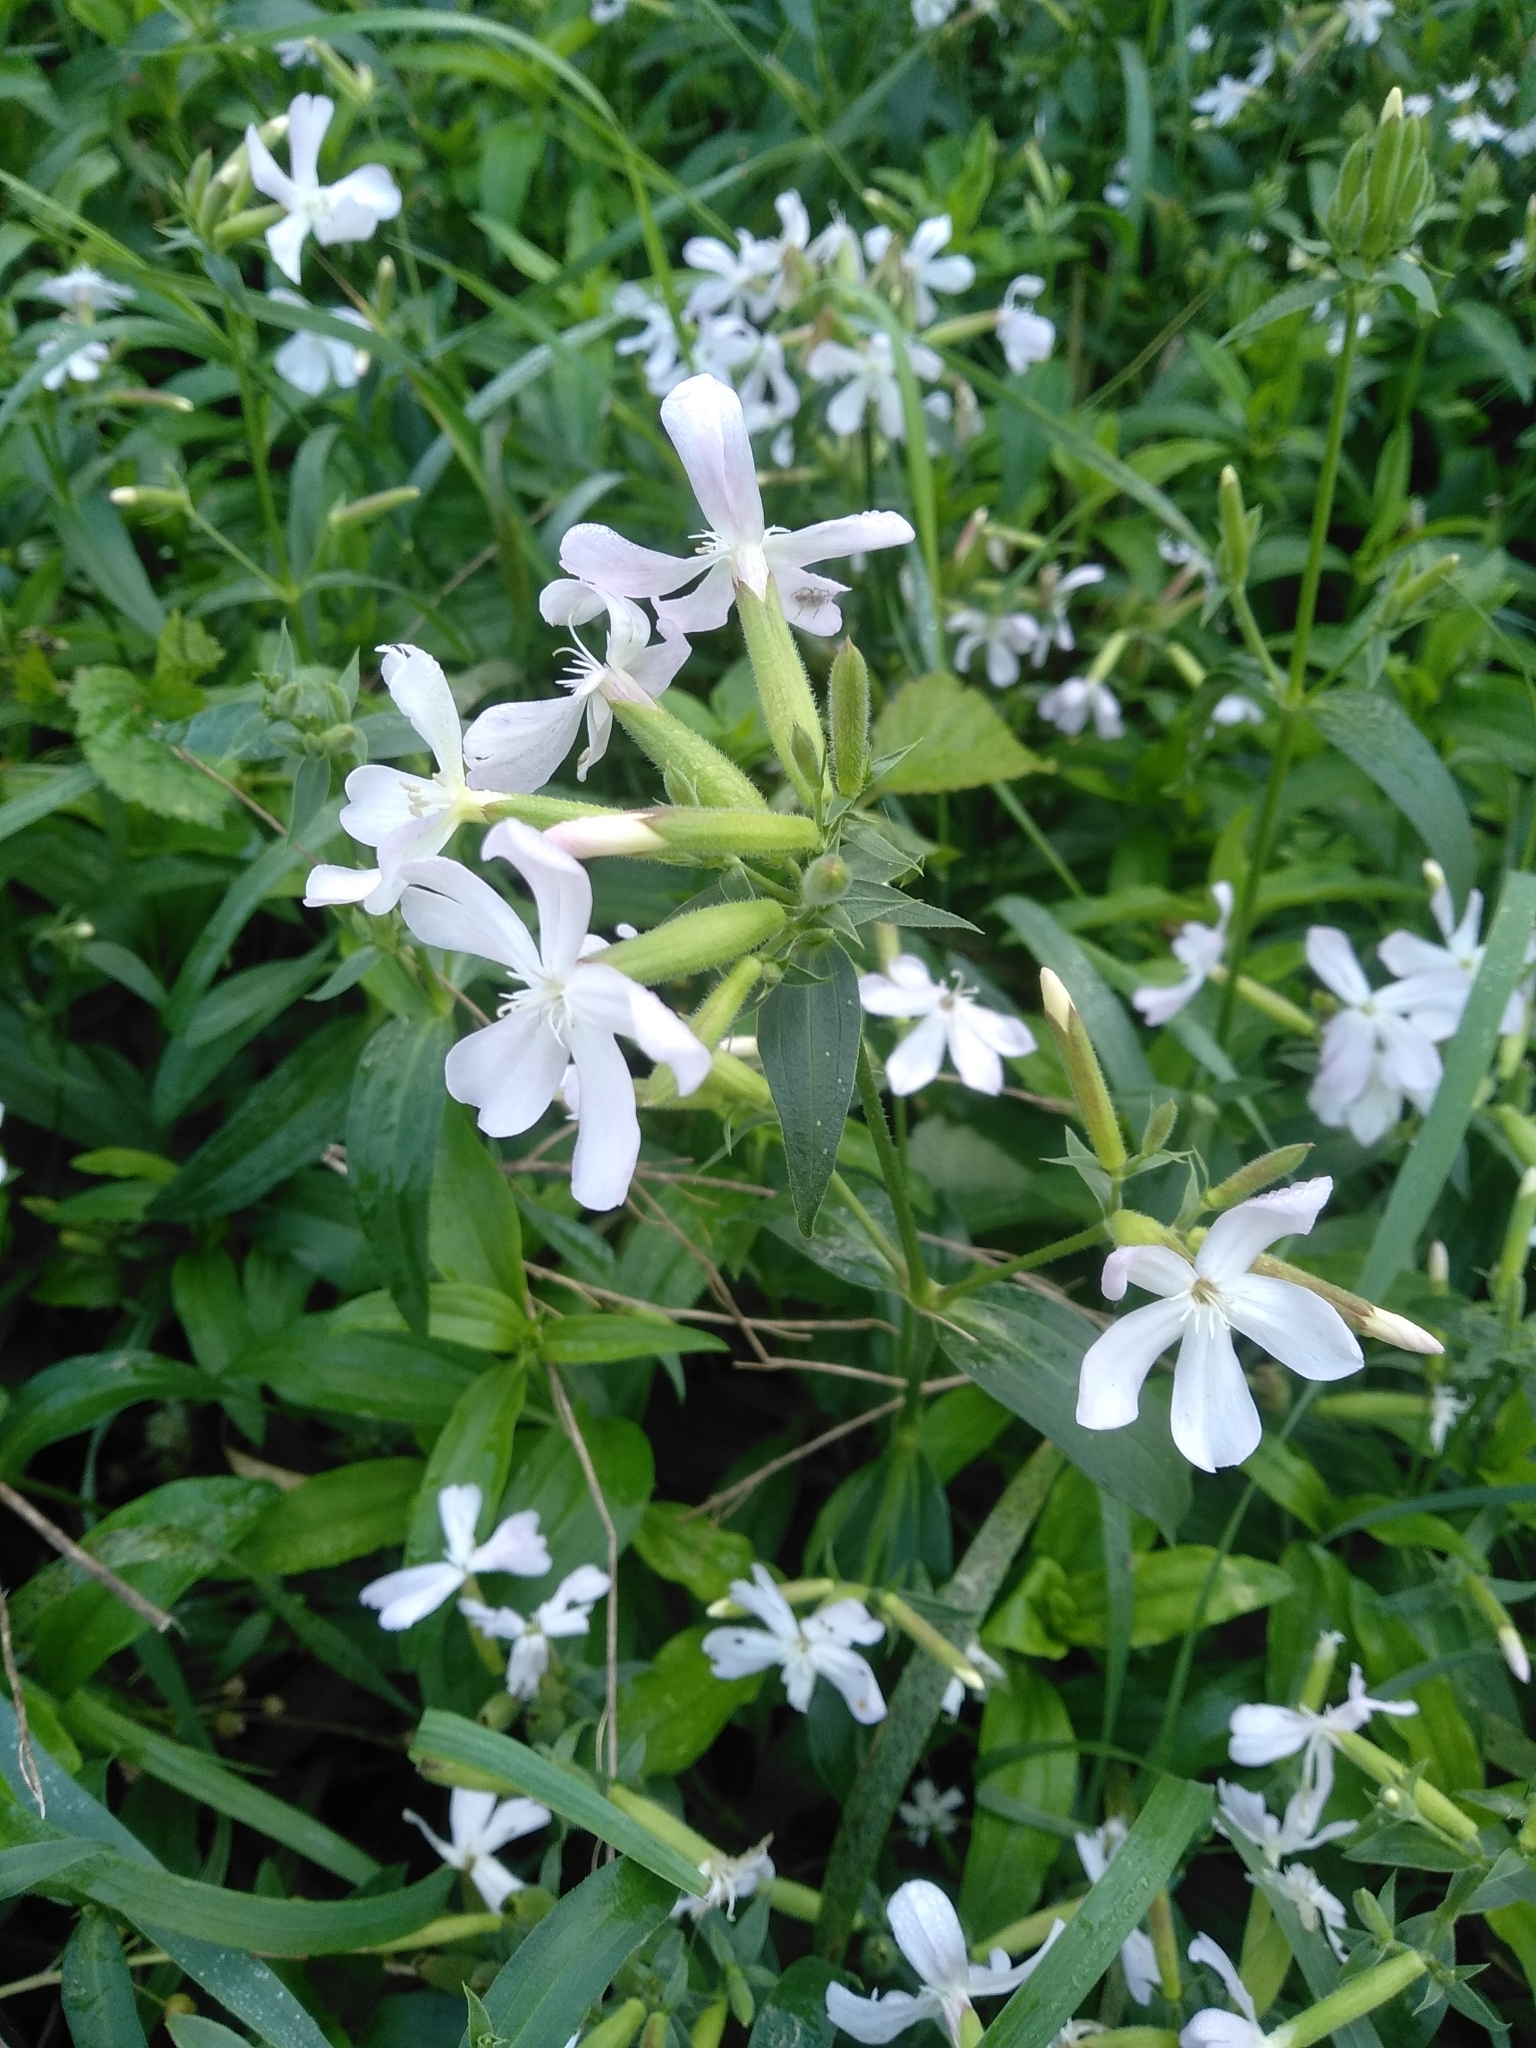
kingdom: Plantae
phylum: Tracheophyta
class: Magnoliopsida
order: Caryophyllales
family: Caryophyllaceae
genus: Saponaria
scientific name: Saponaria officinalis
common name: Soapwort
